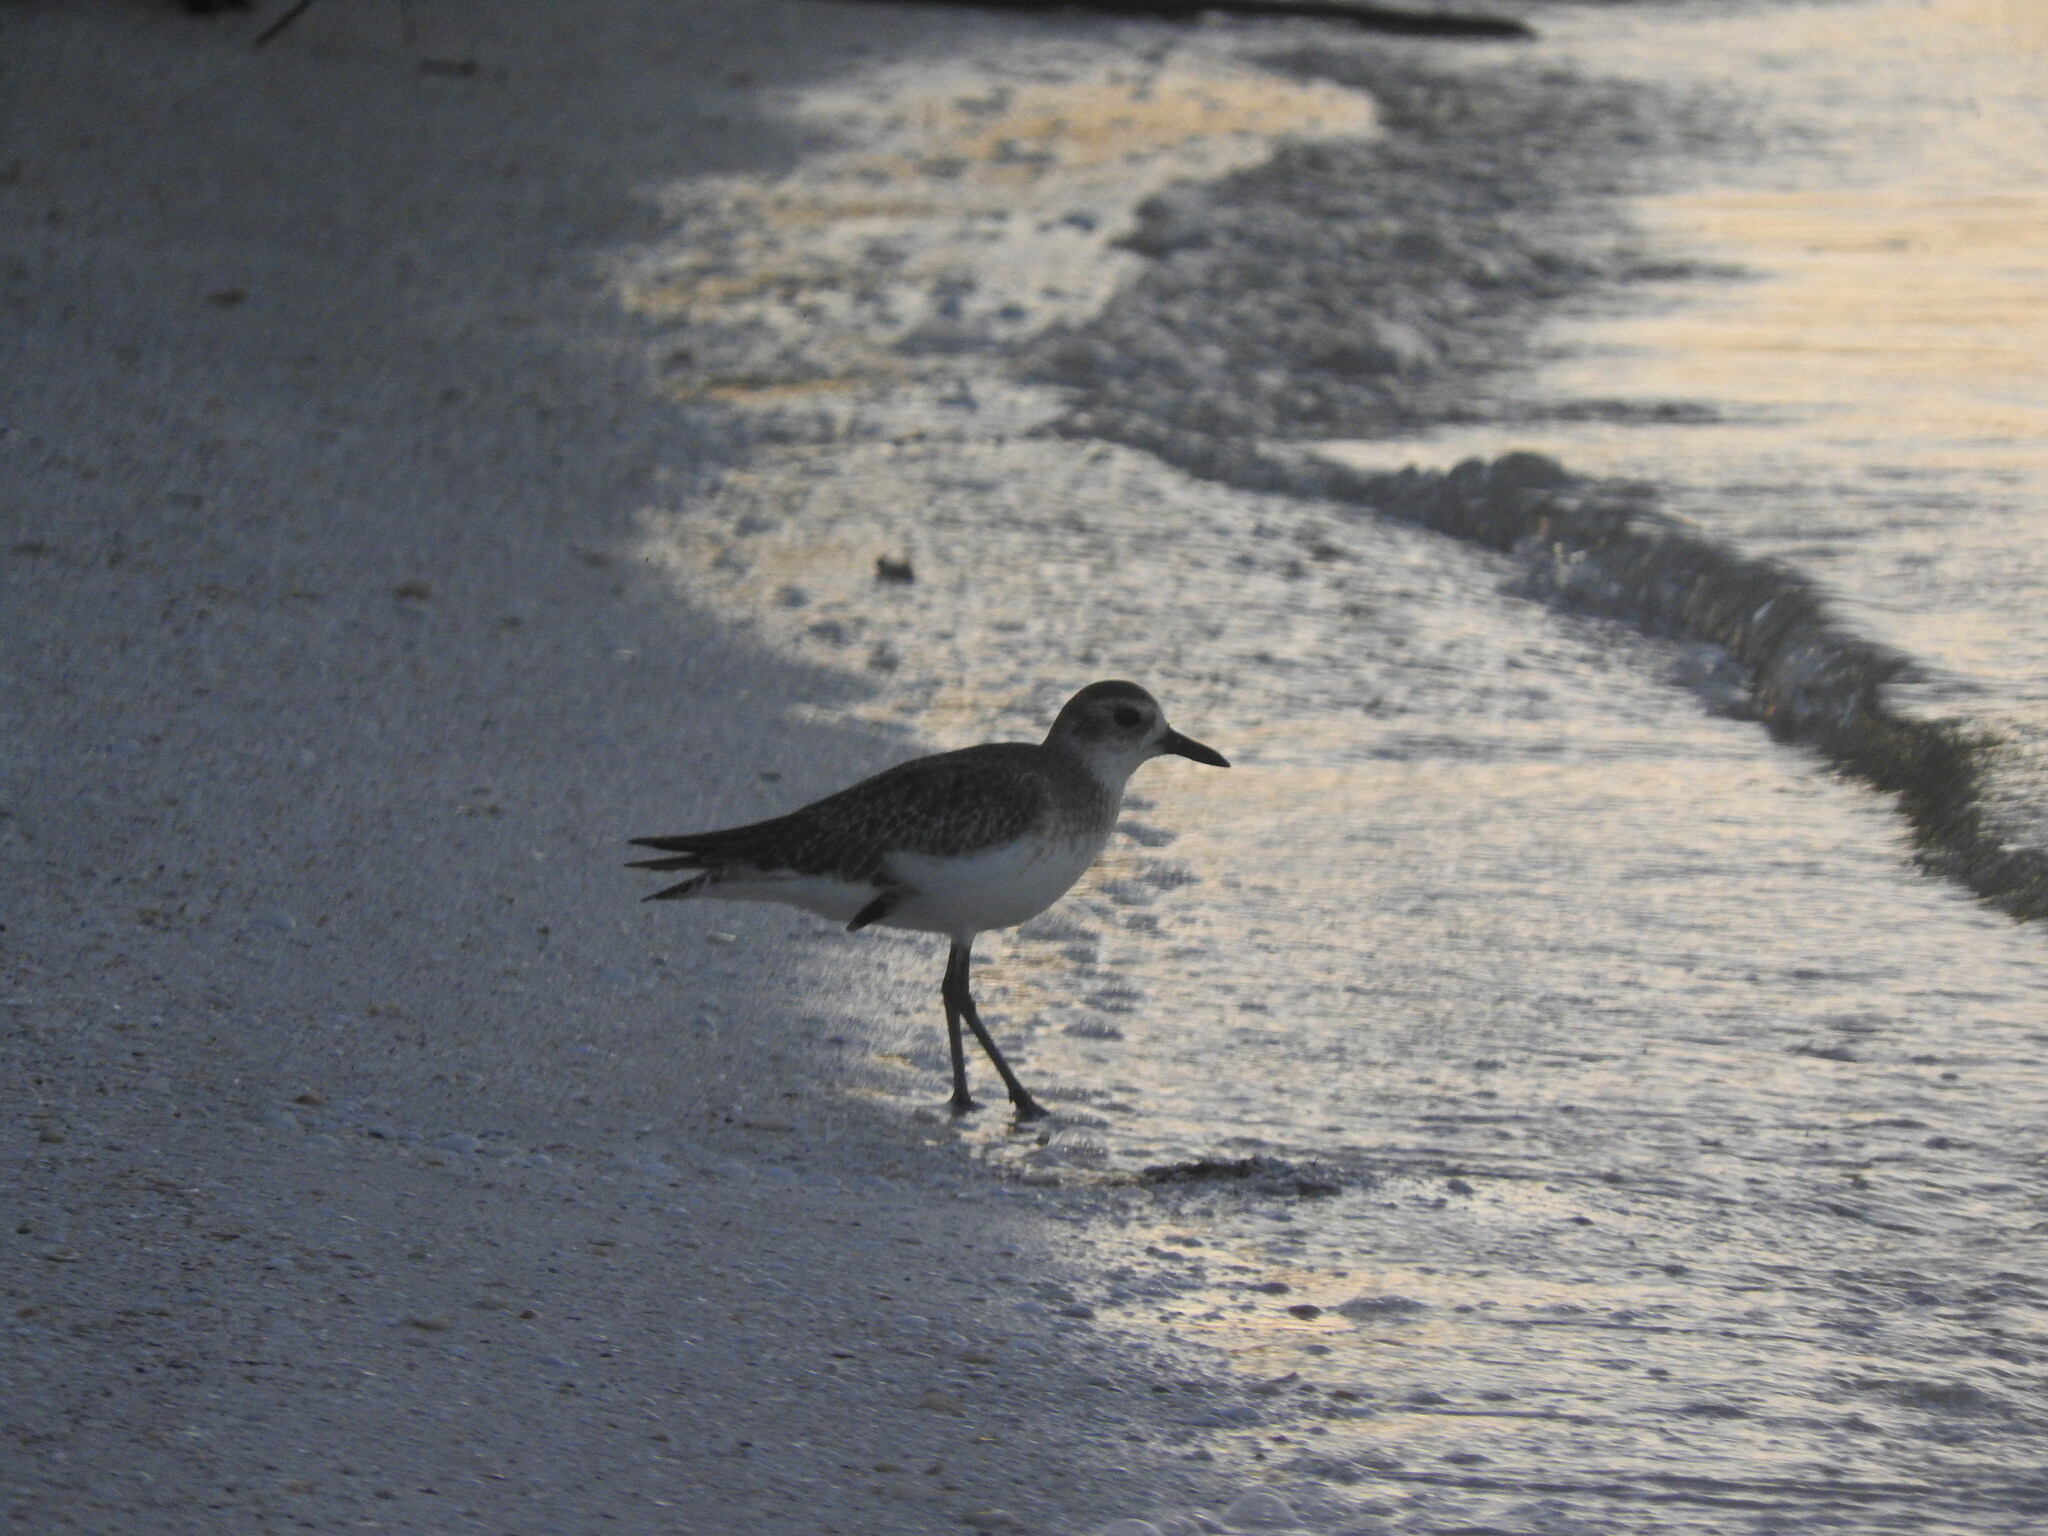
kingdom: Animalia
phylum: Chordata
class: Aves
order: Charadriiformes
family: Charadriidae
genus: Pluvialis
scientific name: Pluvialis squatarola
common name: Grey plover
